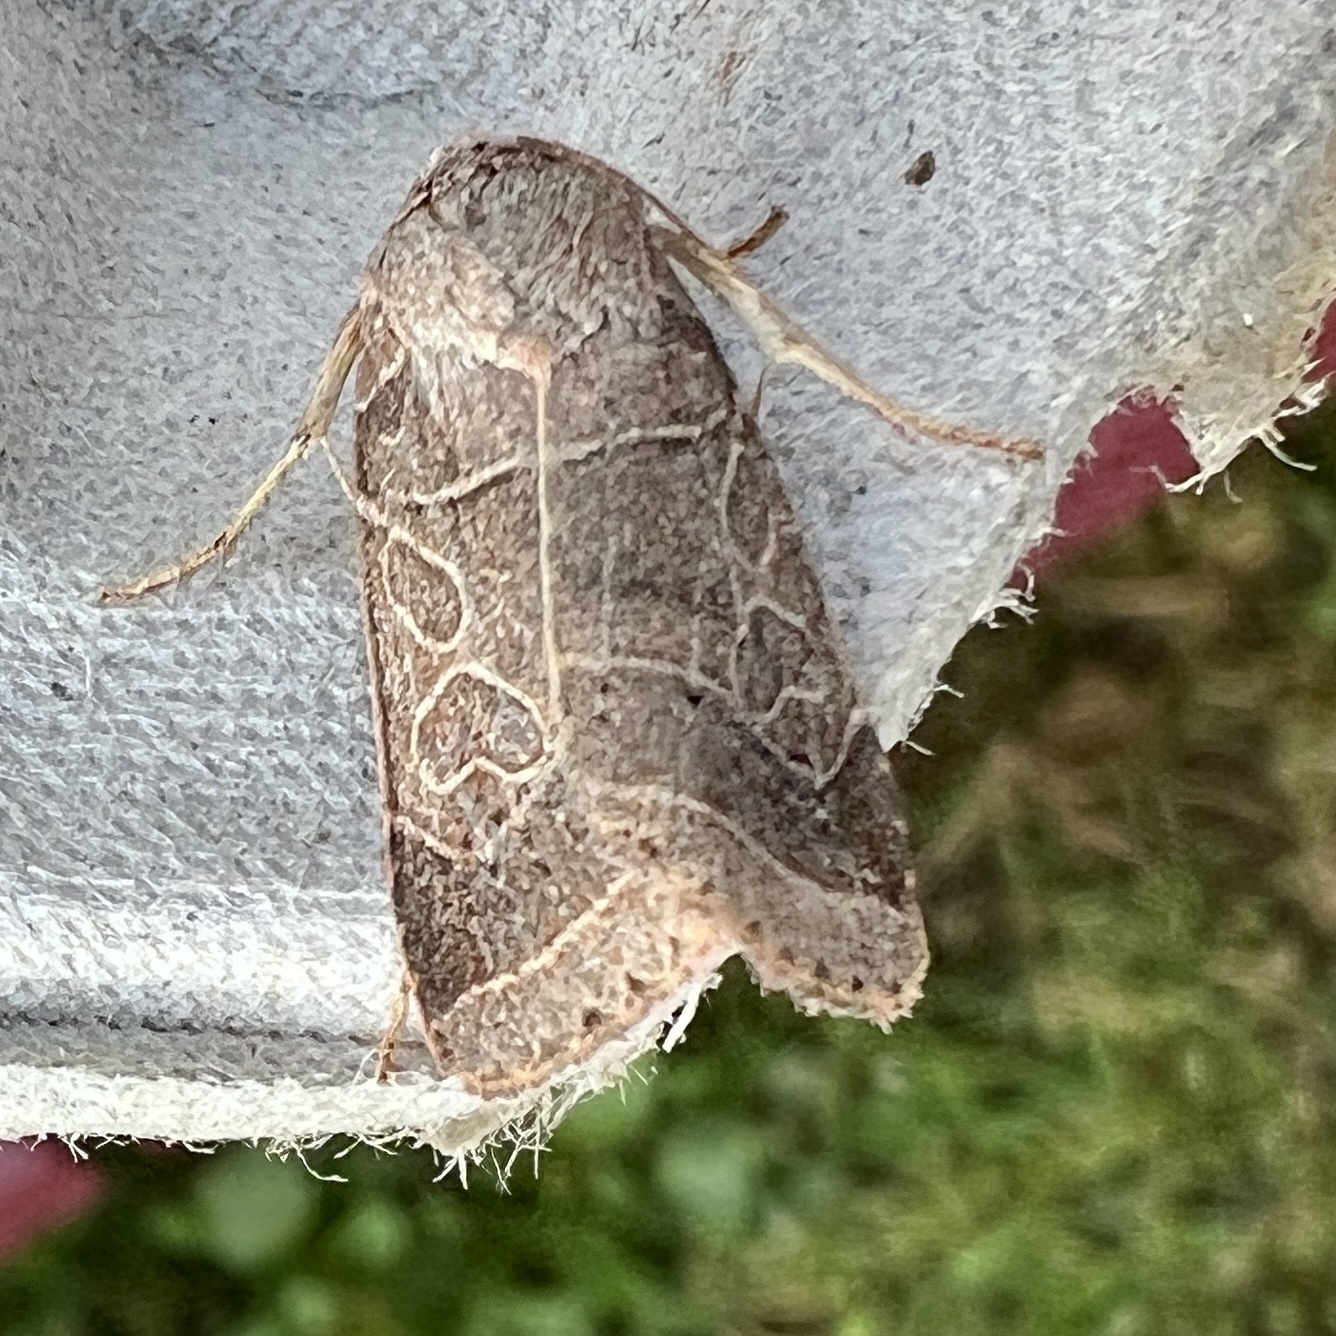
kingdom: Animalia
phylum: Arthropoda
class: Insecta
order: Lepidoptera
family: Noctuidae
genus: Orthodes
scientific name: Orthodes majuscula
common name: Rustic quaker
